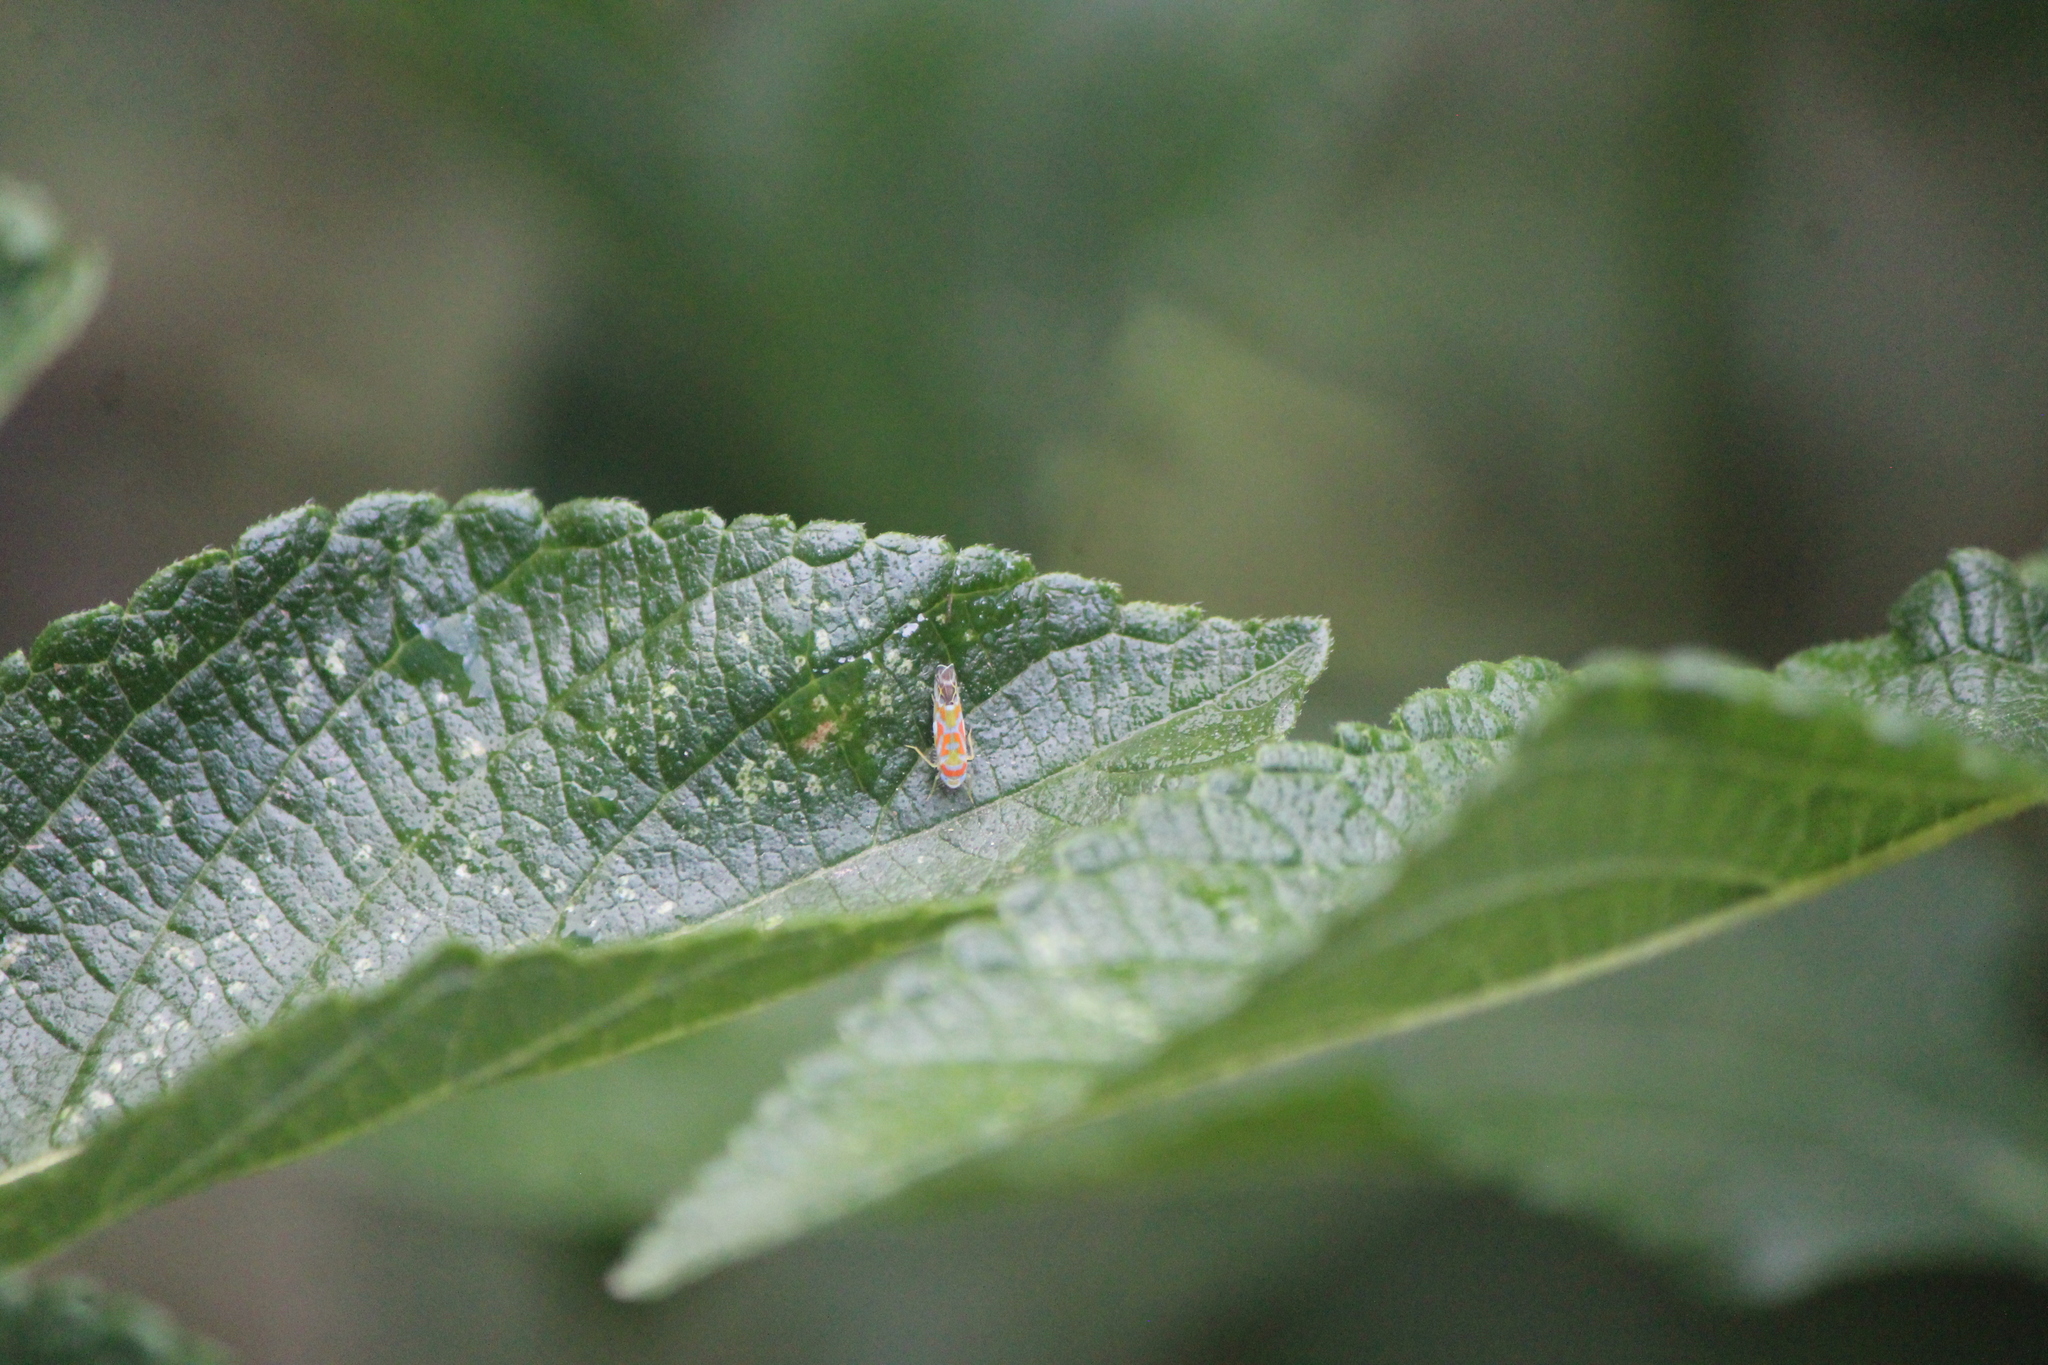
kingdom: Animalia
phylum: Arthropoda
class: Insecta
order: Hemiptera
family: Cicadellidae
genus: Barela
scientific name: Barela decorata
